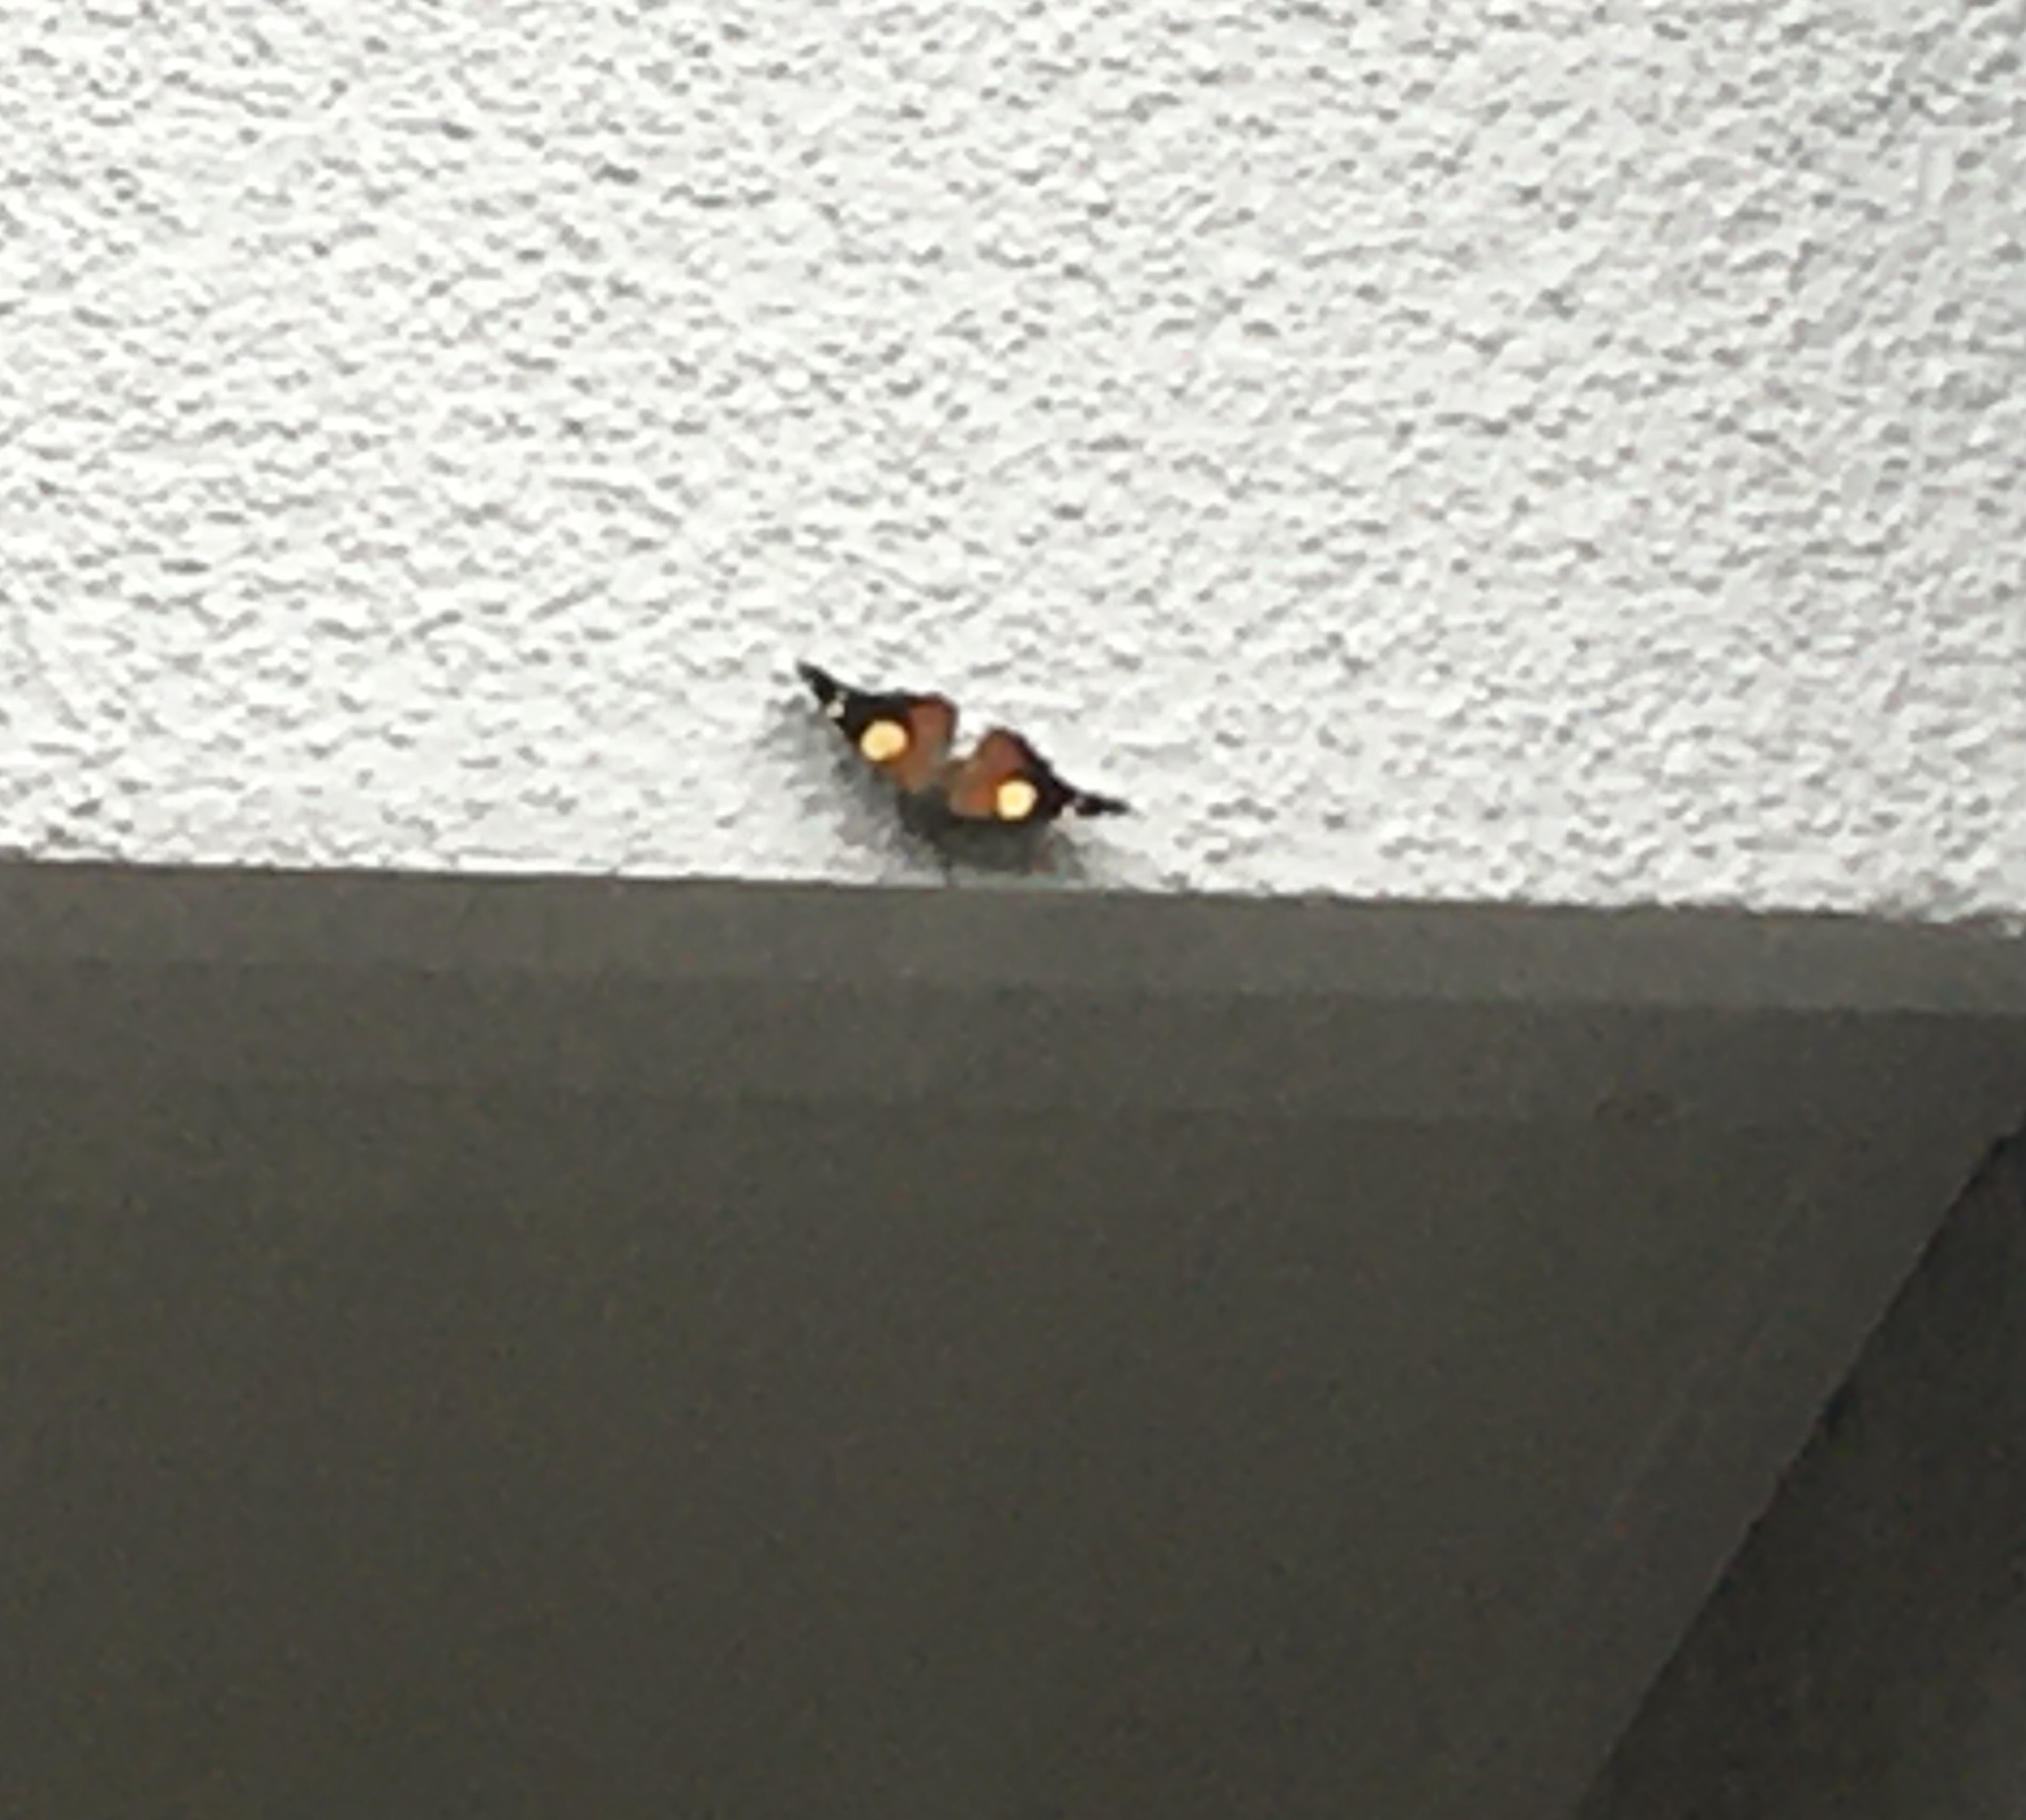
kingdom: Animalia
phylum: Arthropoda
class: Insecta
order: Lepidoptera
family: Nymphalidae
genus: Vanessa
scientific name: Vanessa itea
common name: Yellow admiral
